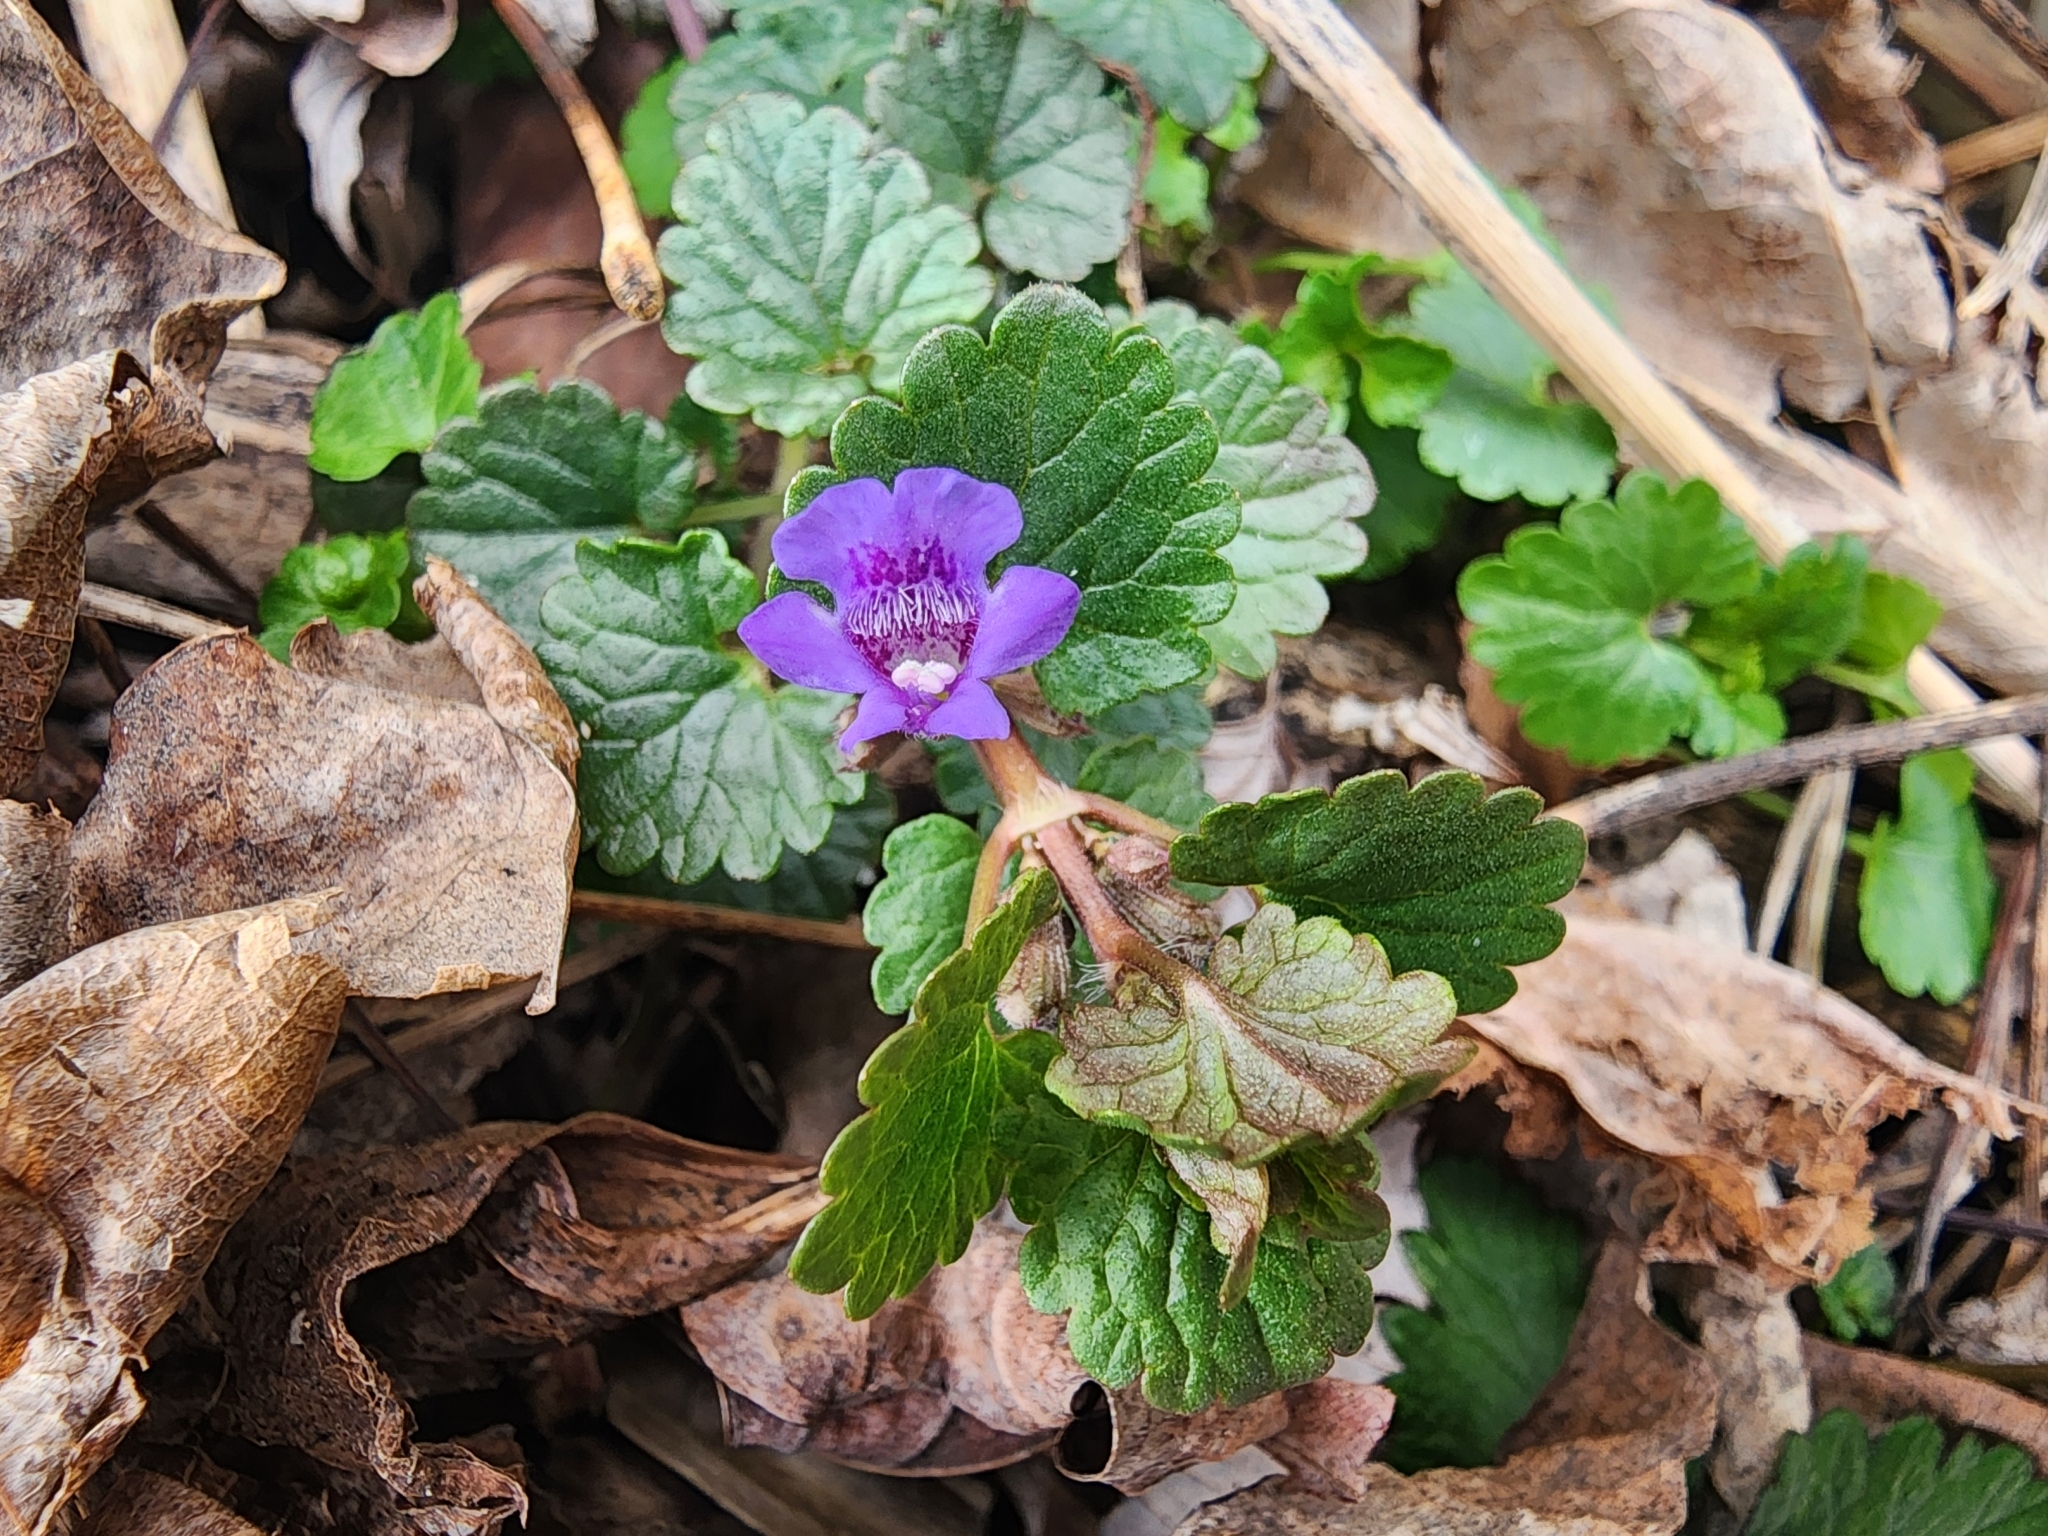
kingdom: Plantae
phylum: Tracheophyta
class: Magnoliopsida
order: Lamiales
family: Lamiaceae
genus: Glechoma
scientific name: Glechoma hederacea
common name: Ground ivy
